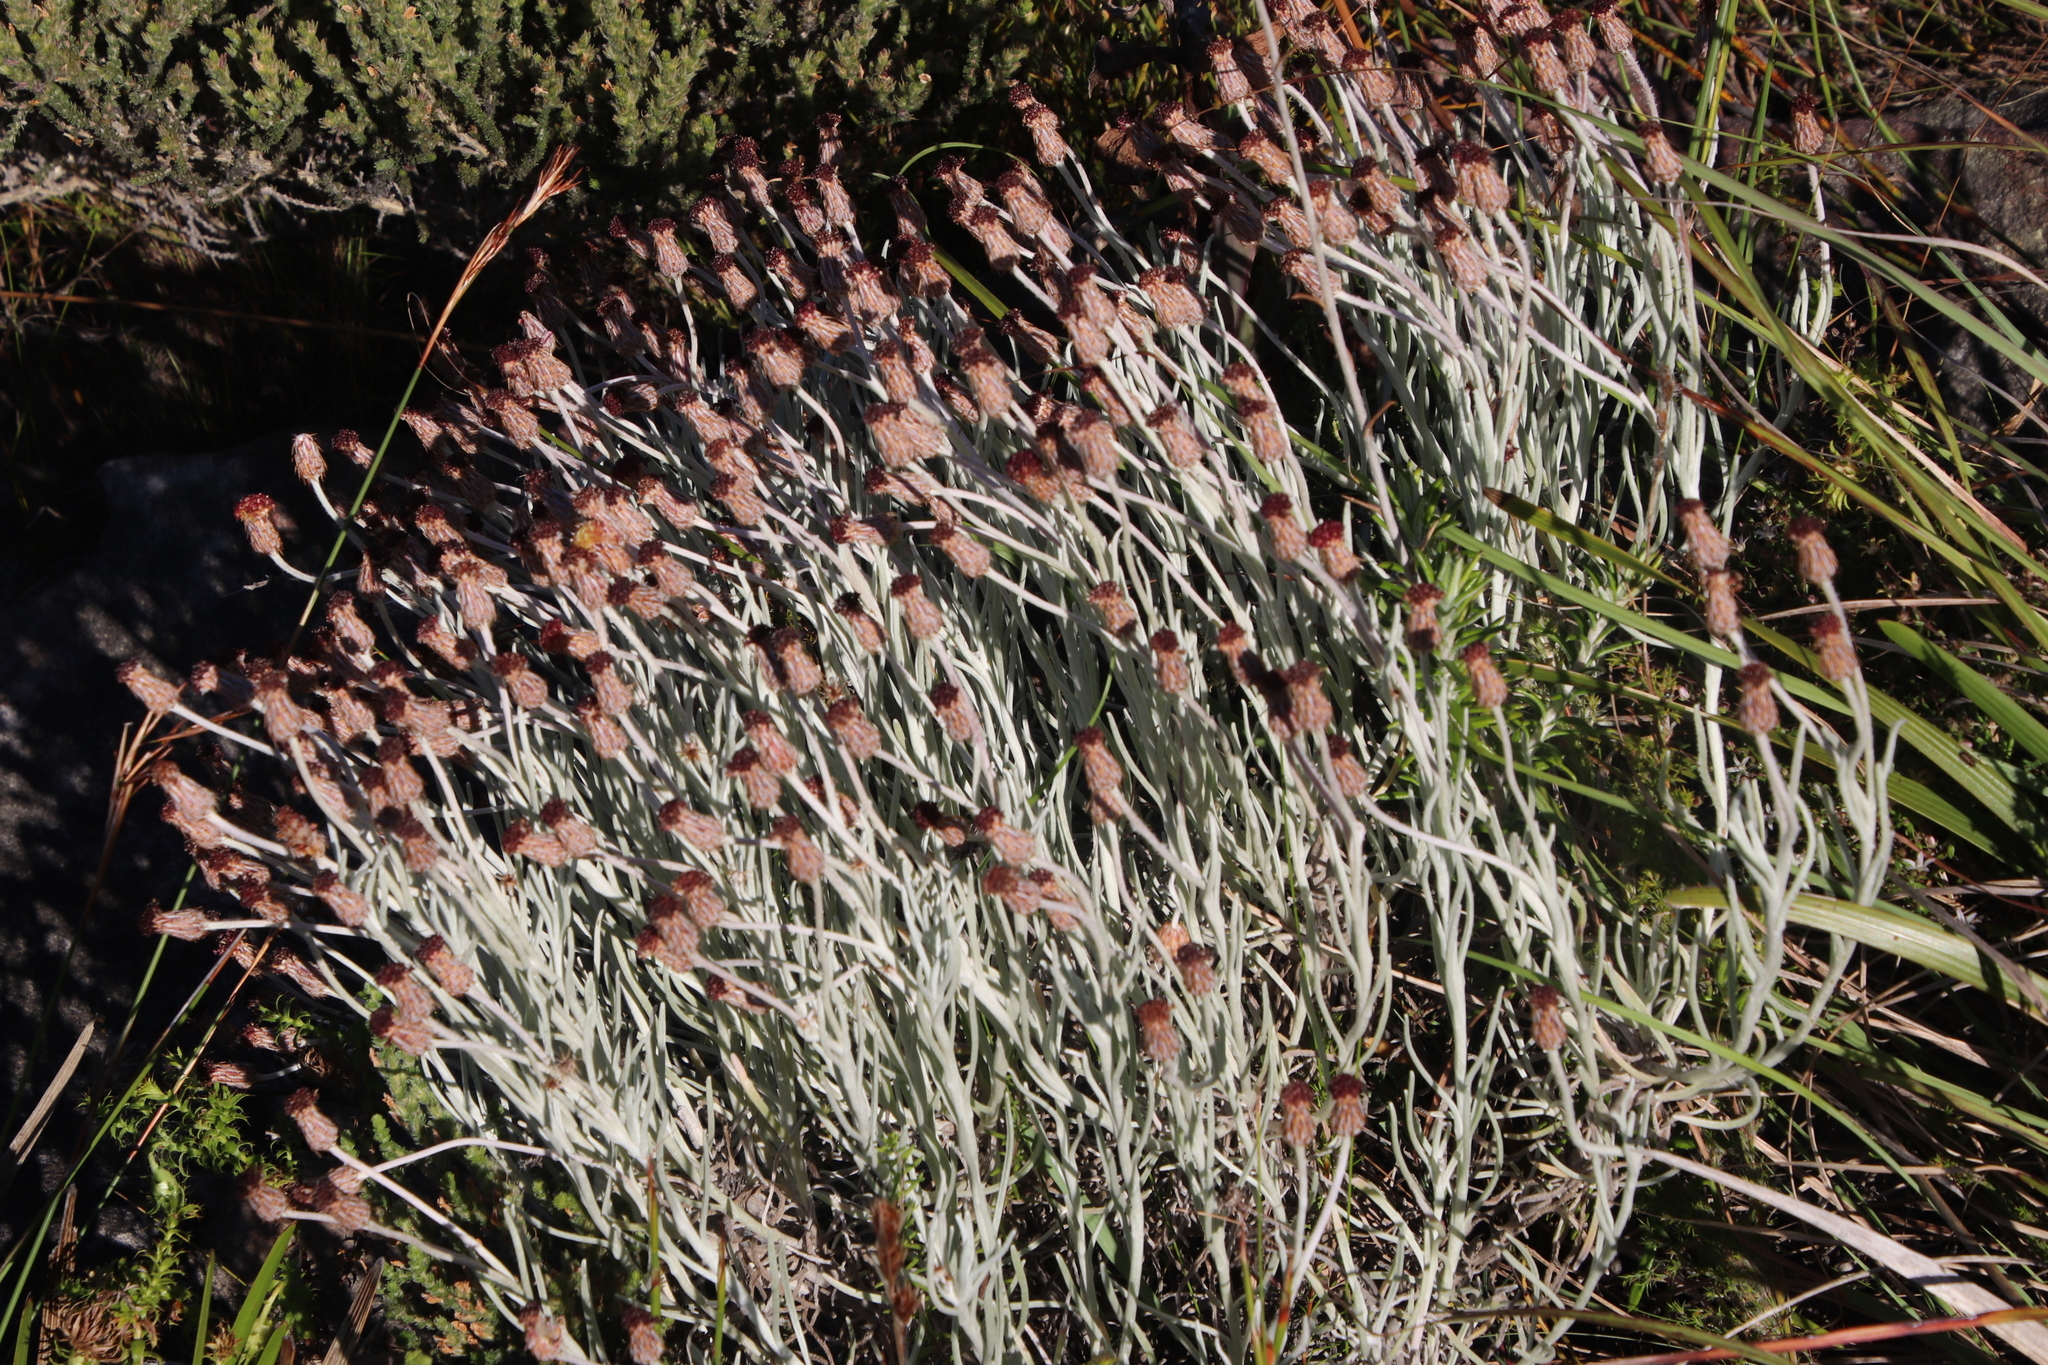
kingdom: Plantae
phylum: Tracheophyta
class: Magnoliopsida
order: Asterales
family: Asteraceae
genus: Syncarpha
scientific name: Syncarpha gnaphaloides
